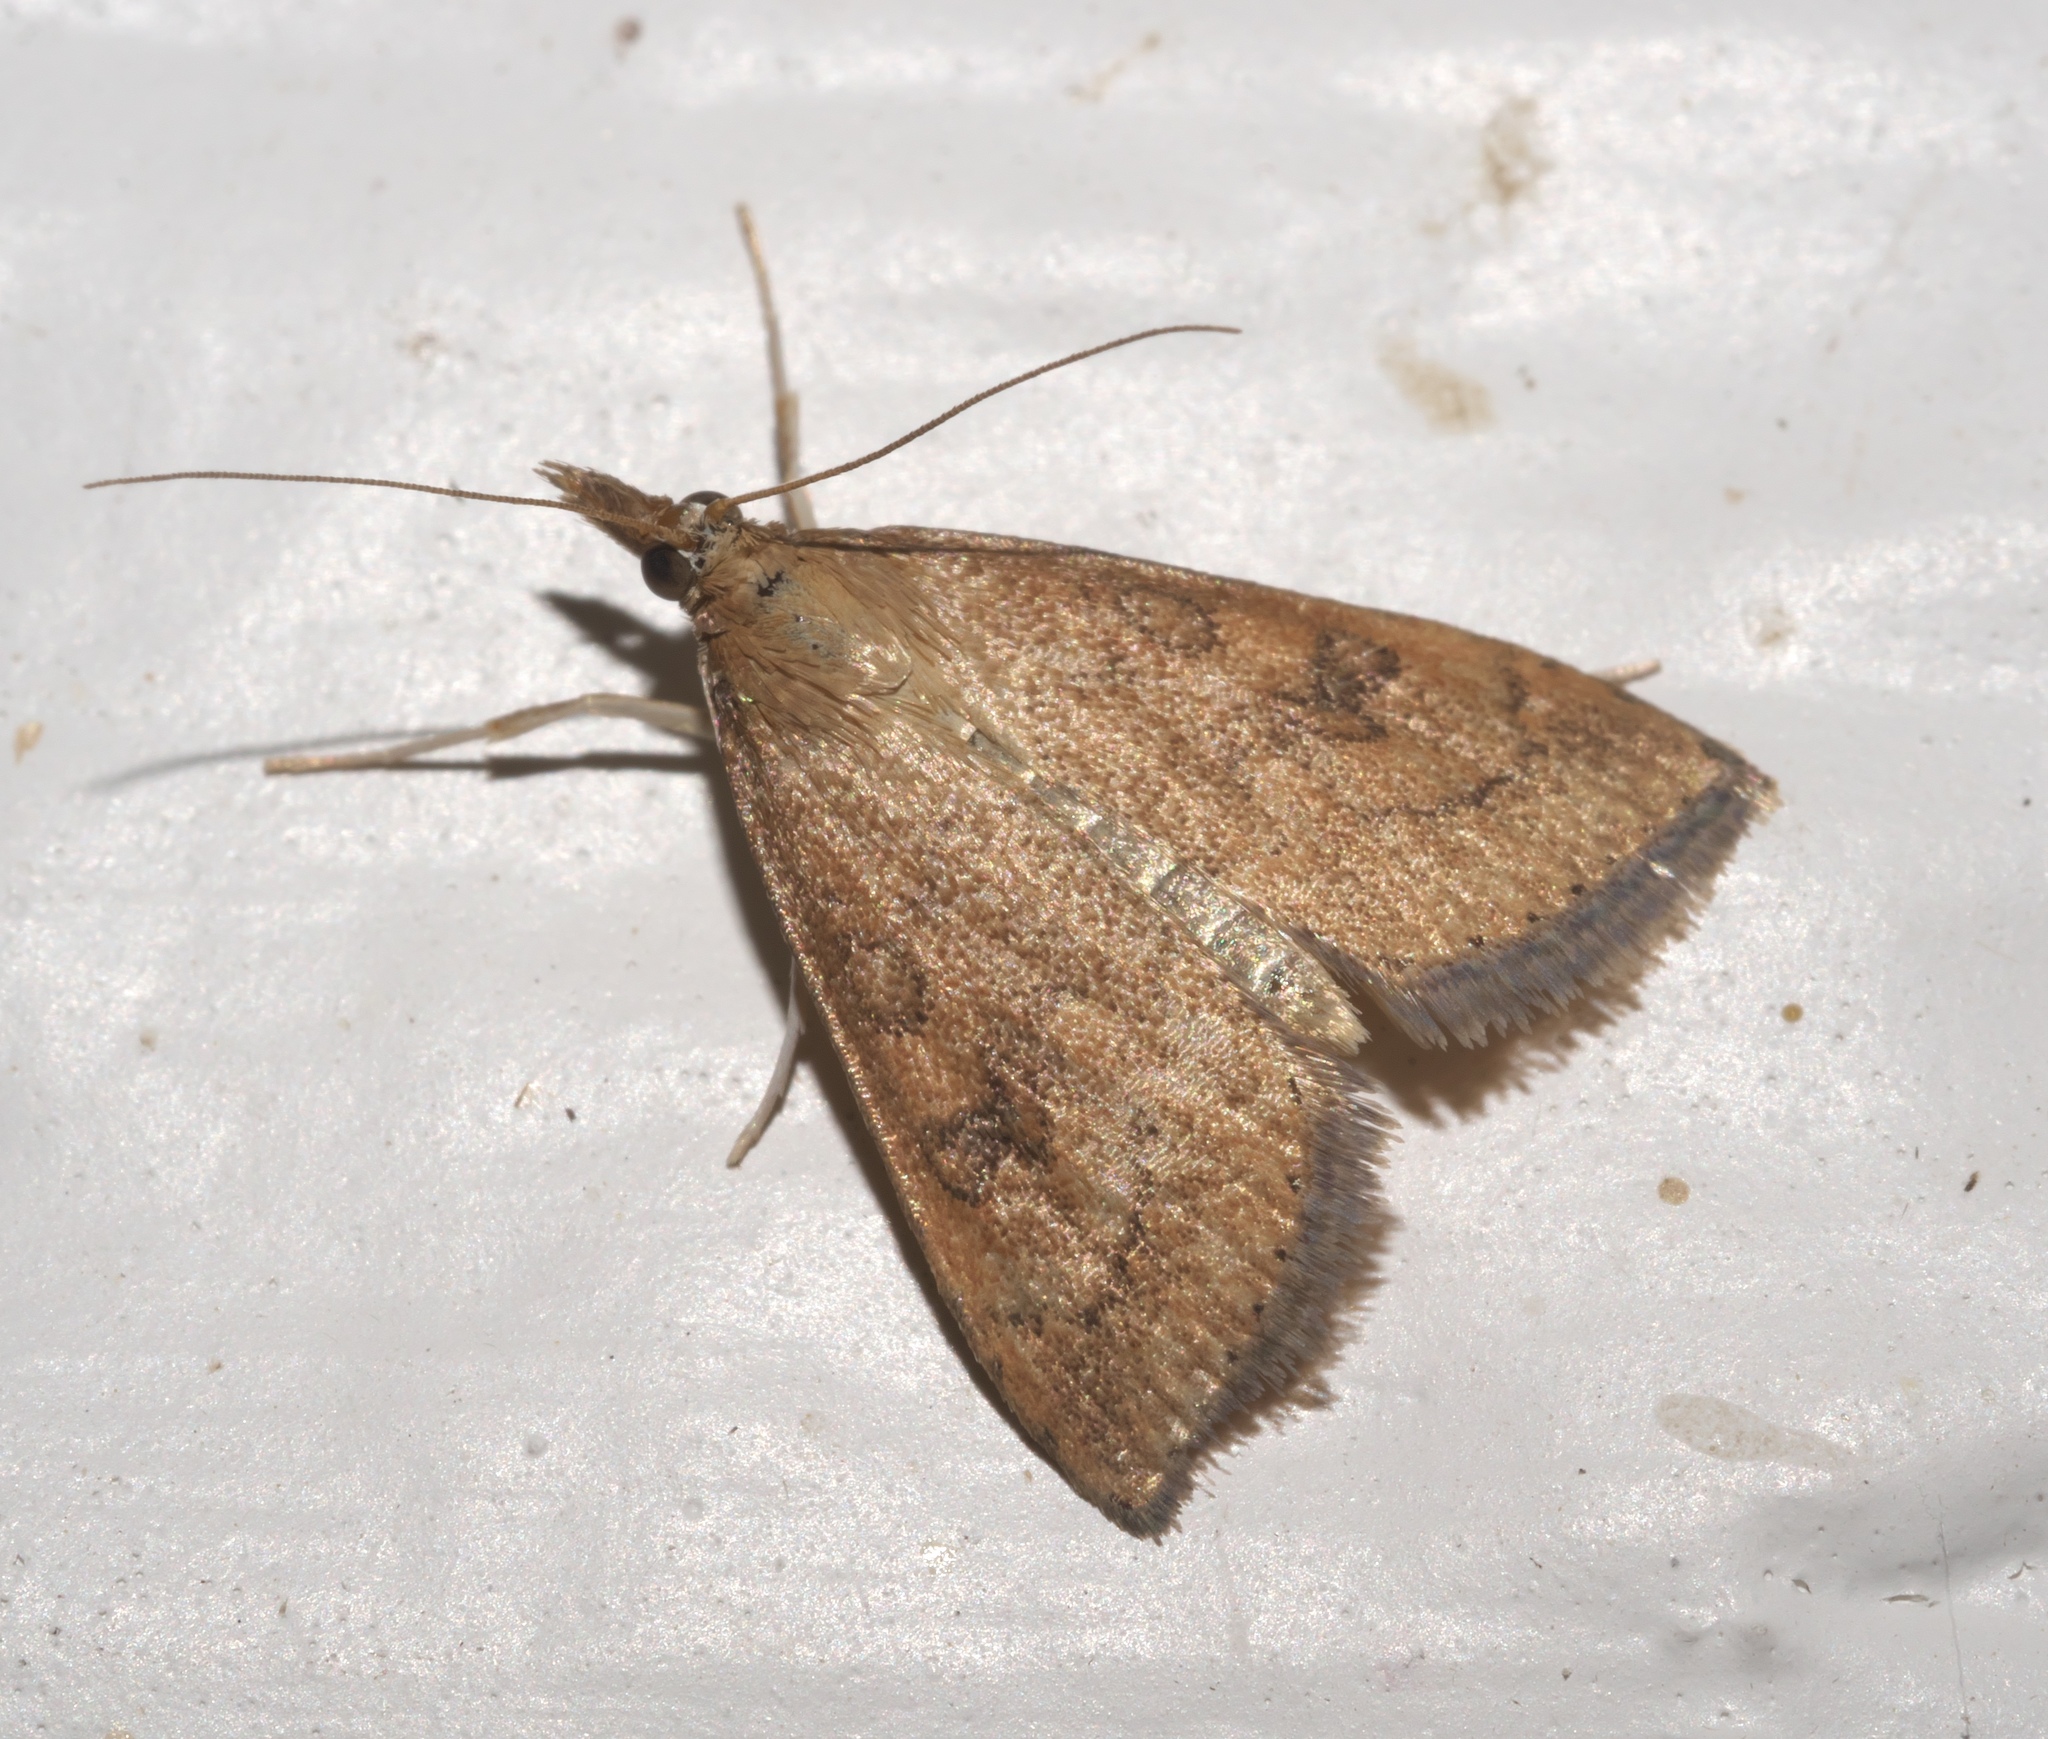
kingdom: Animalia
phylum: Arthropoda
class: Insecta
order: Lepidoptera
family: Crambidae
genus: Udea
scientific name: Udea rubigalis
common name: Celery leaftier moth
